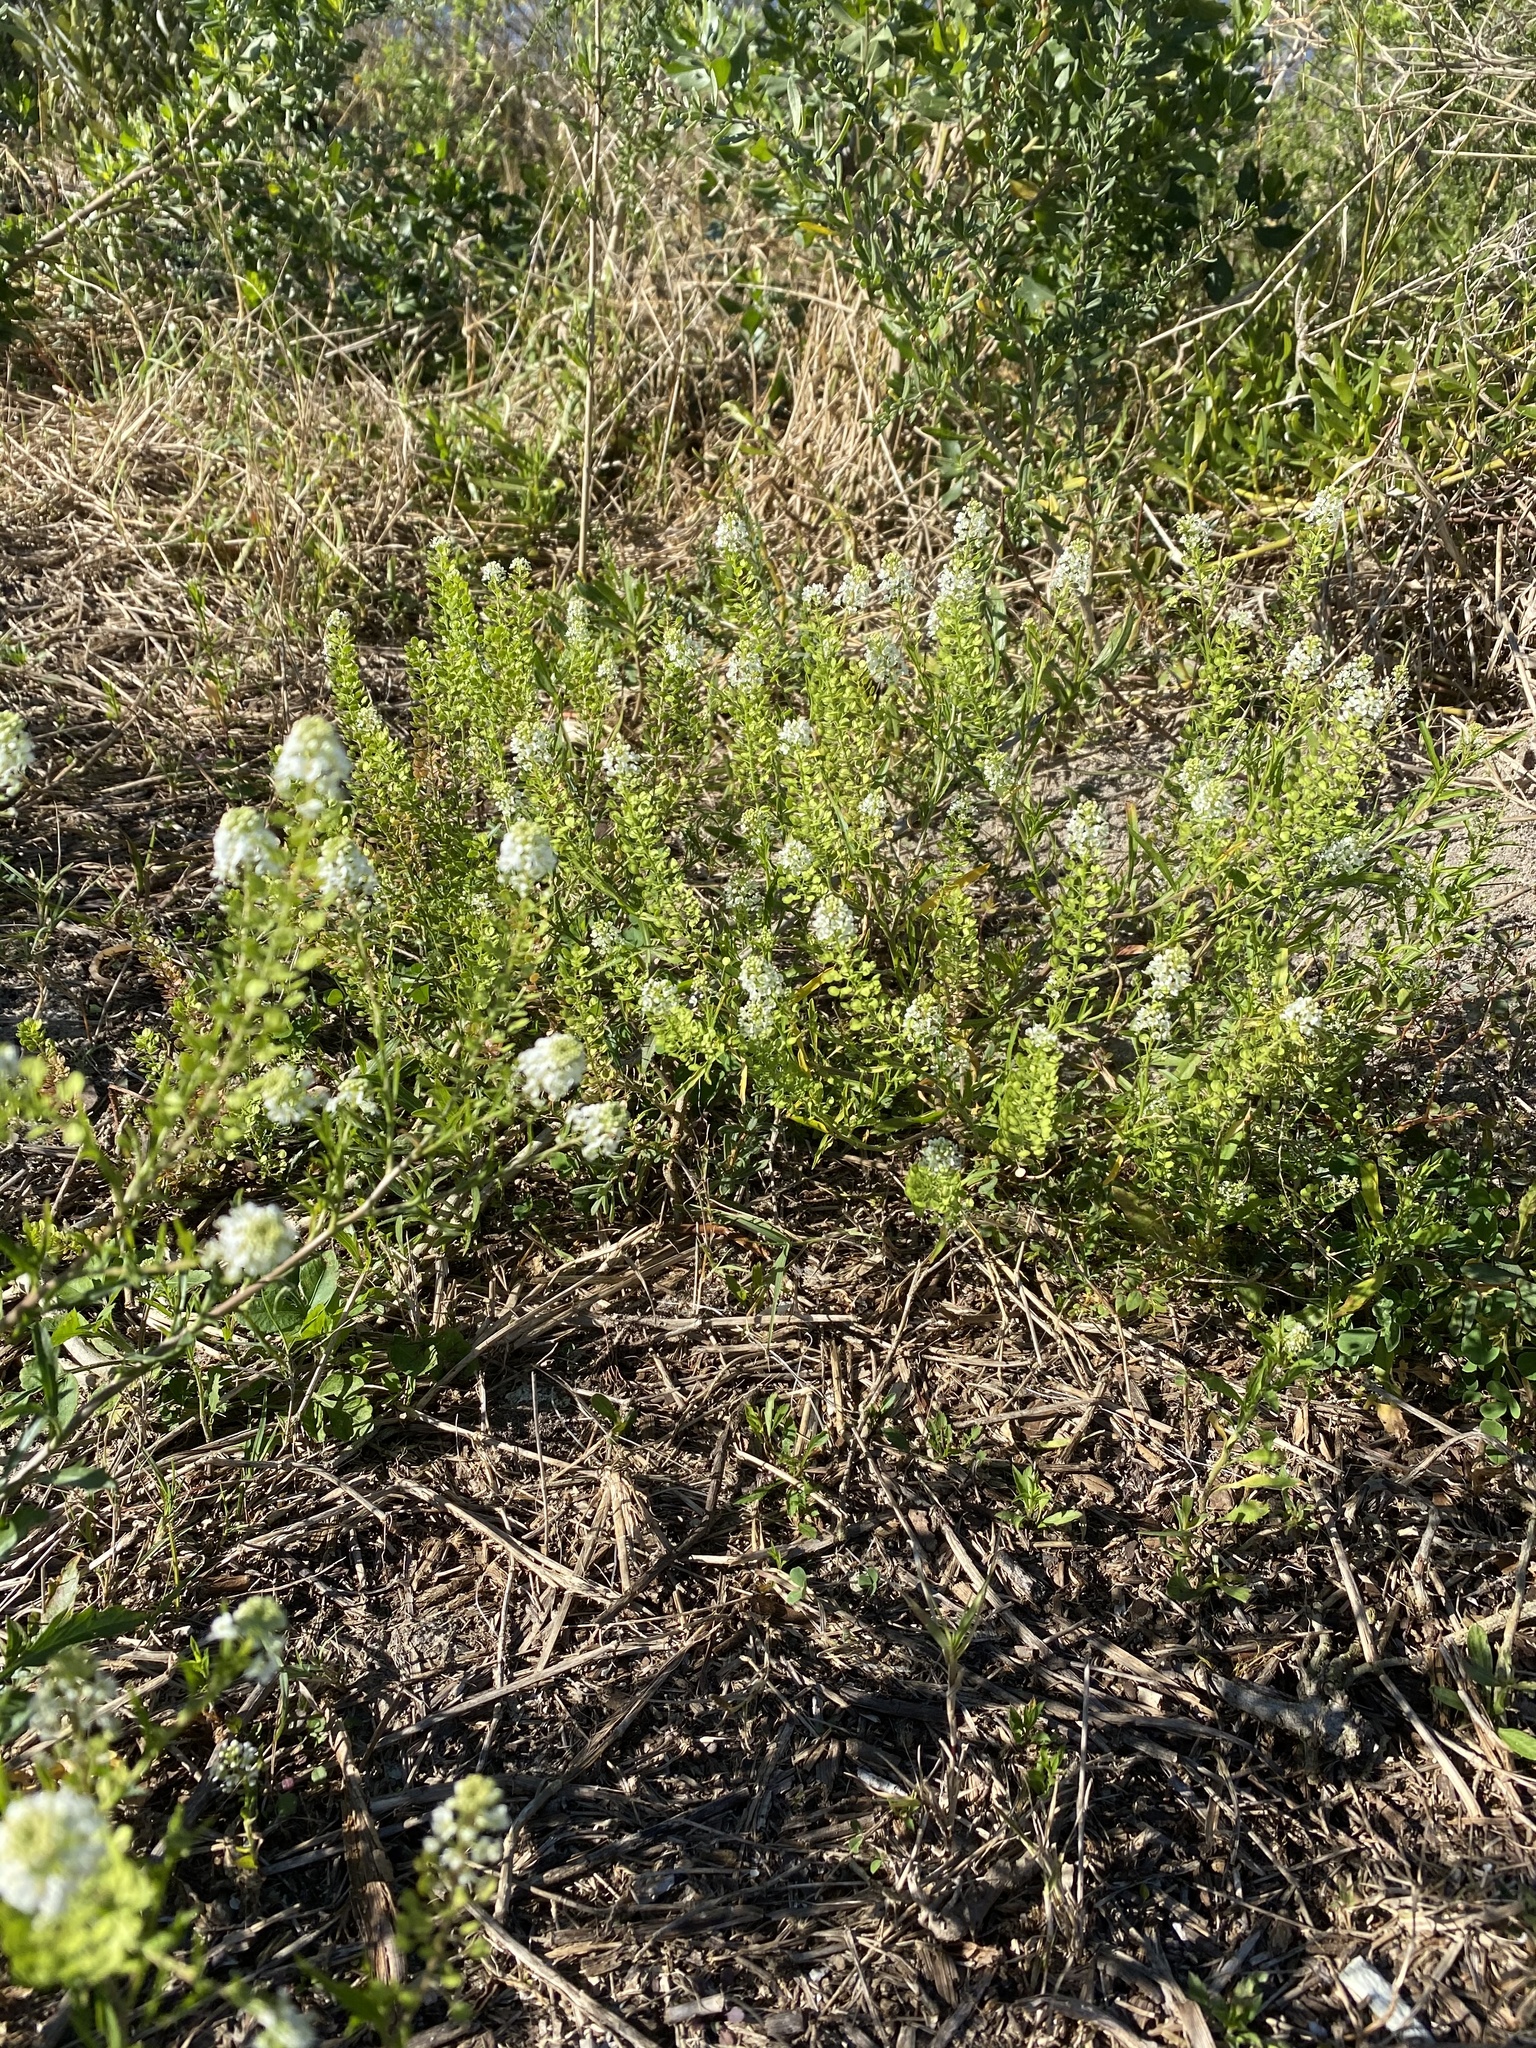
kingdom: Plantae
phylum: Tracheophyta
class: Magnoliopsida
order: Brassicales
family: Brassicaceae
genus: Lepidium
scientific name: Lepidium virginicum
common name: Least pepperwort
